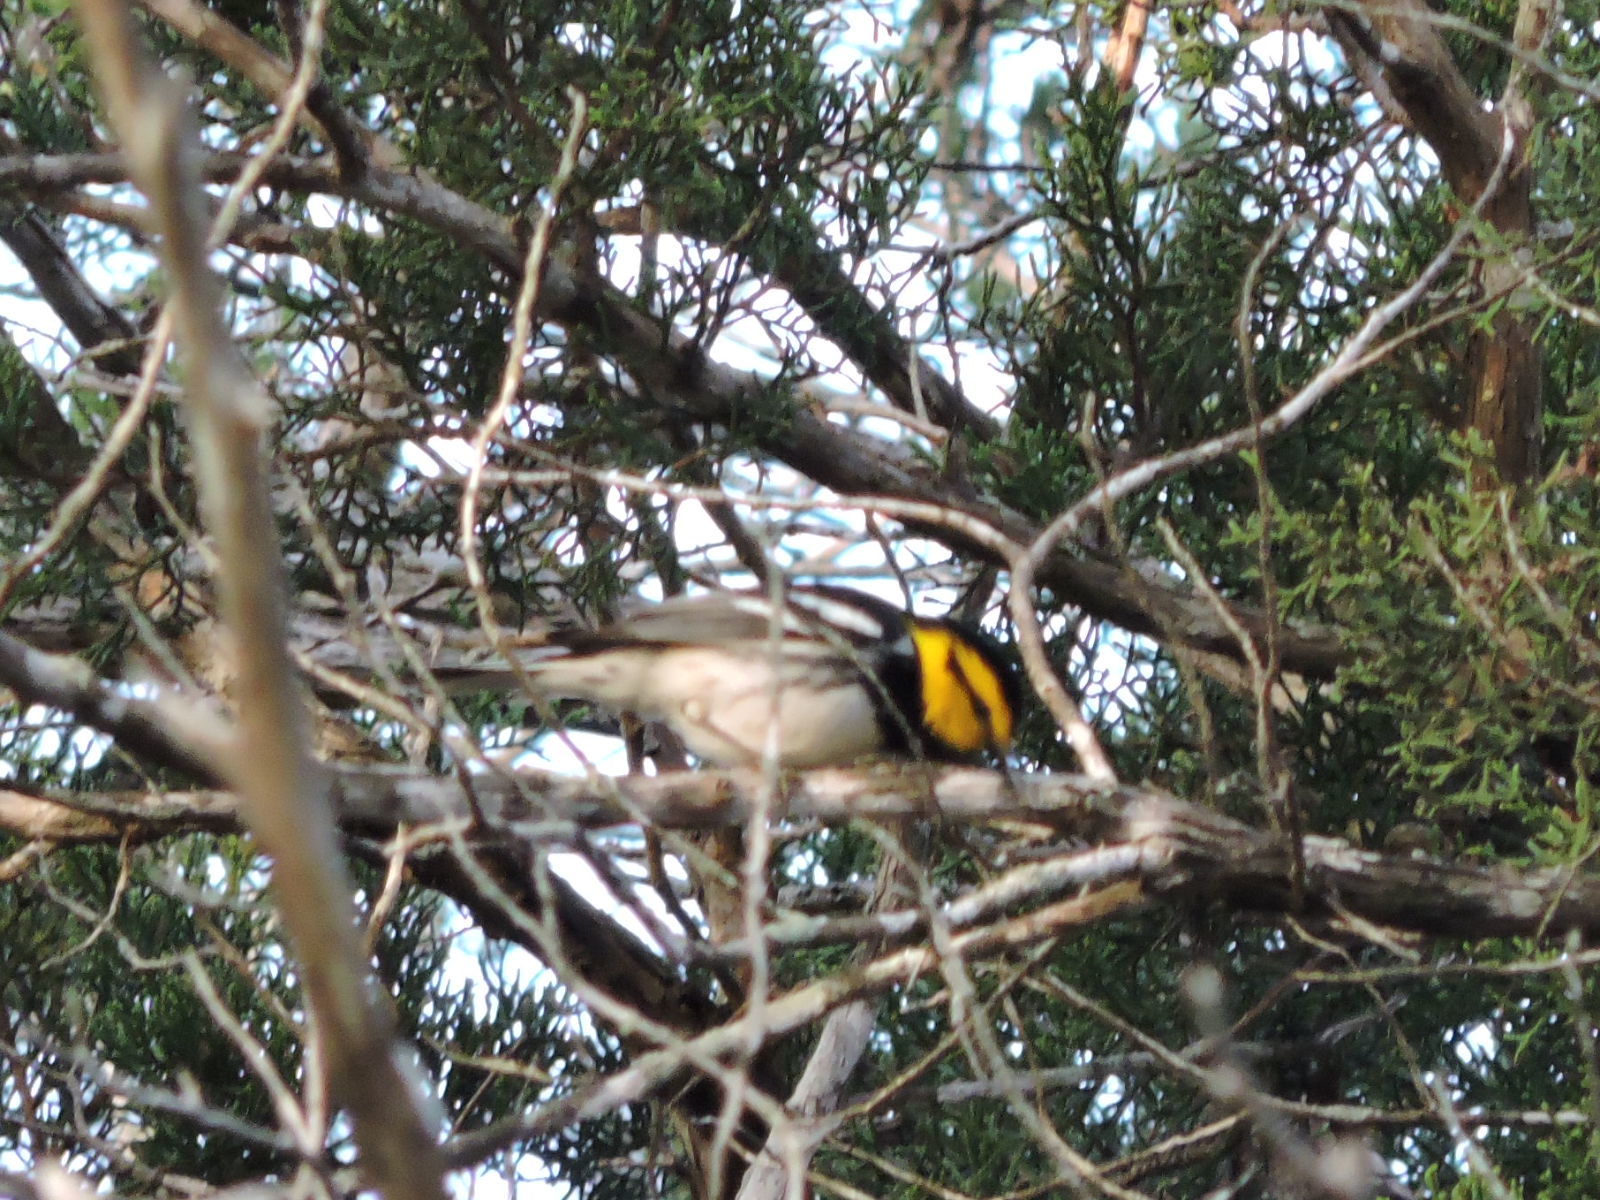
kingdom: Animalia
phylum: Chordata
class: Aves
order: Passeriformes
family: Parulidae
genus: Setophaga
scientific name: Setophaga chrysoparia
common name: Golden-cheeked warbler
